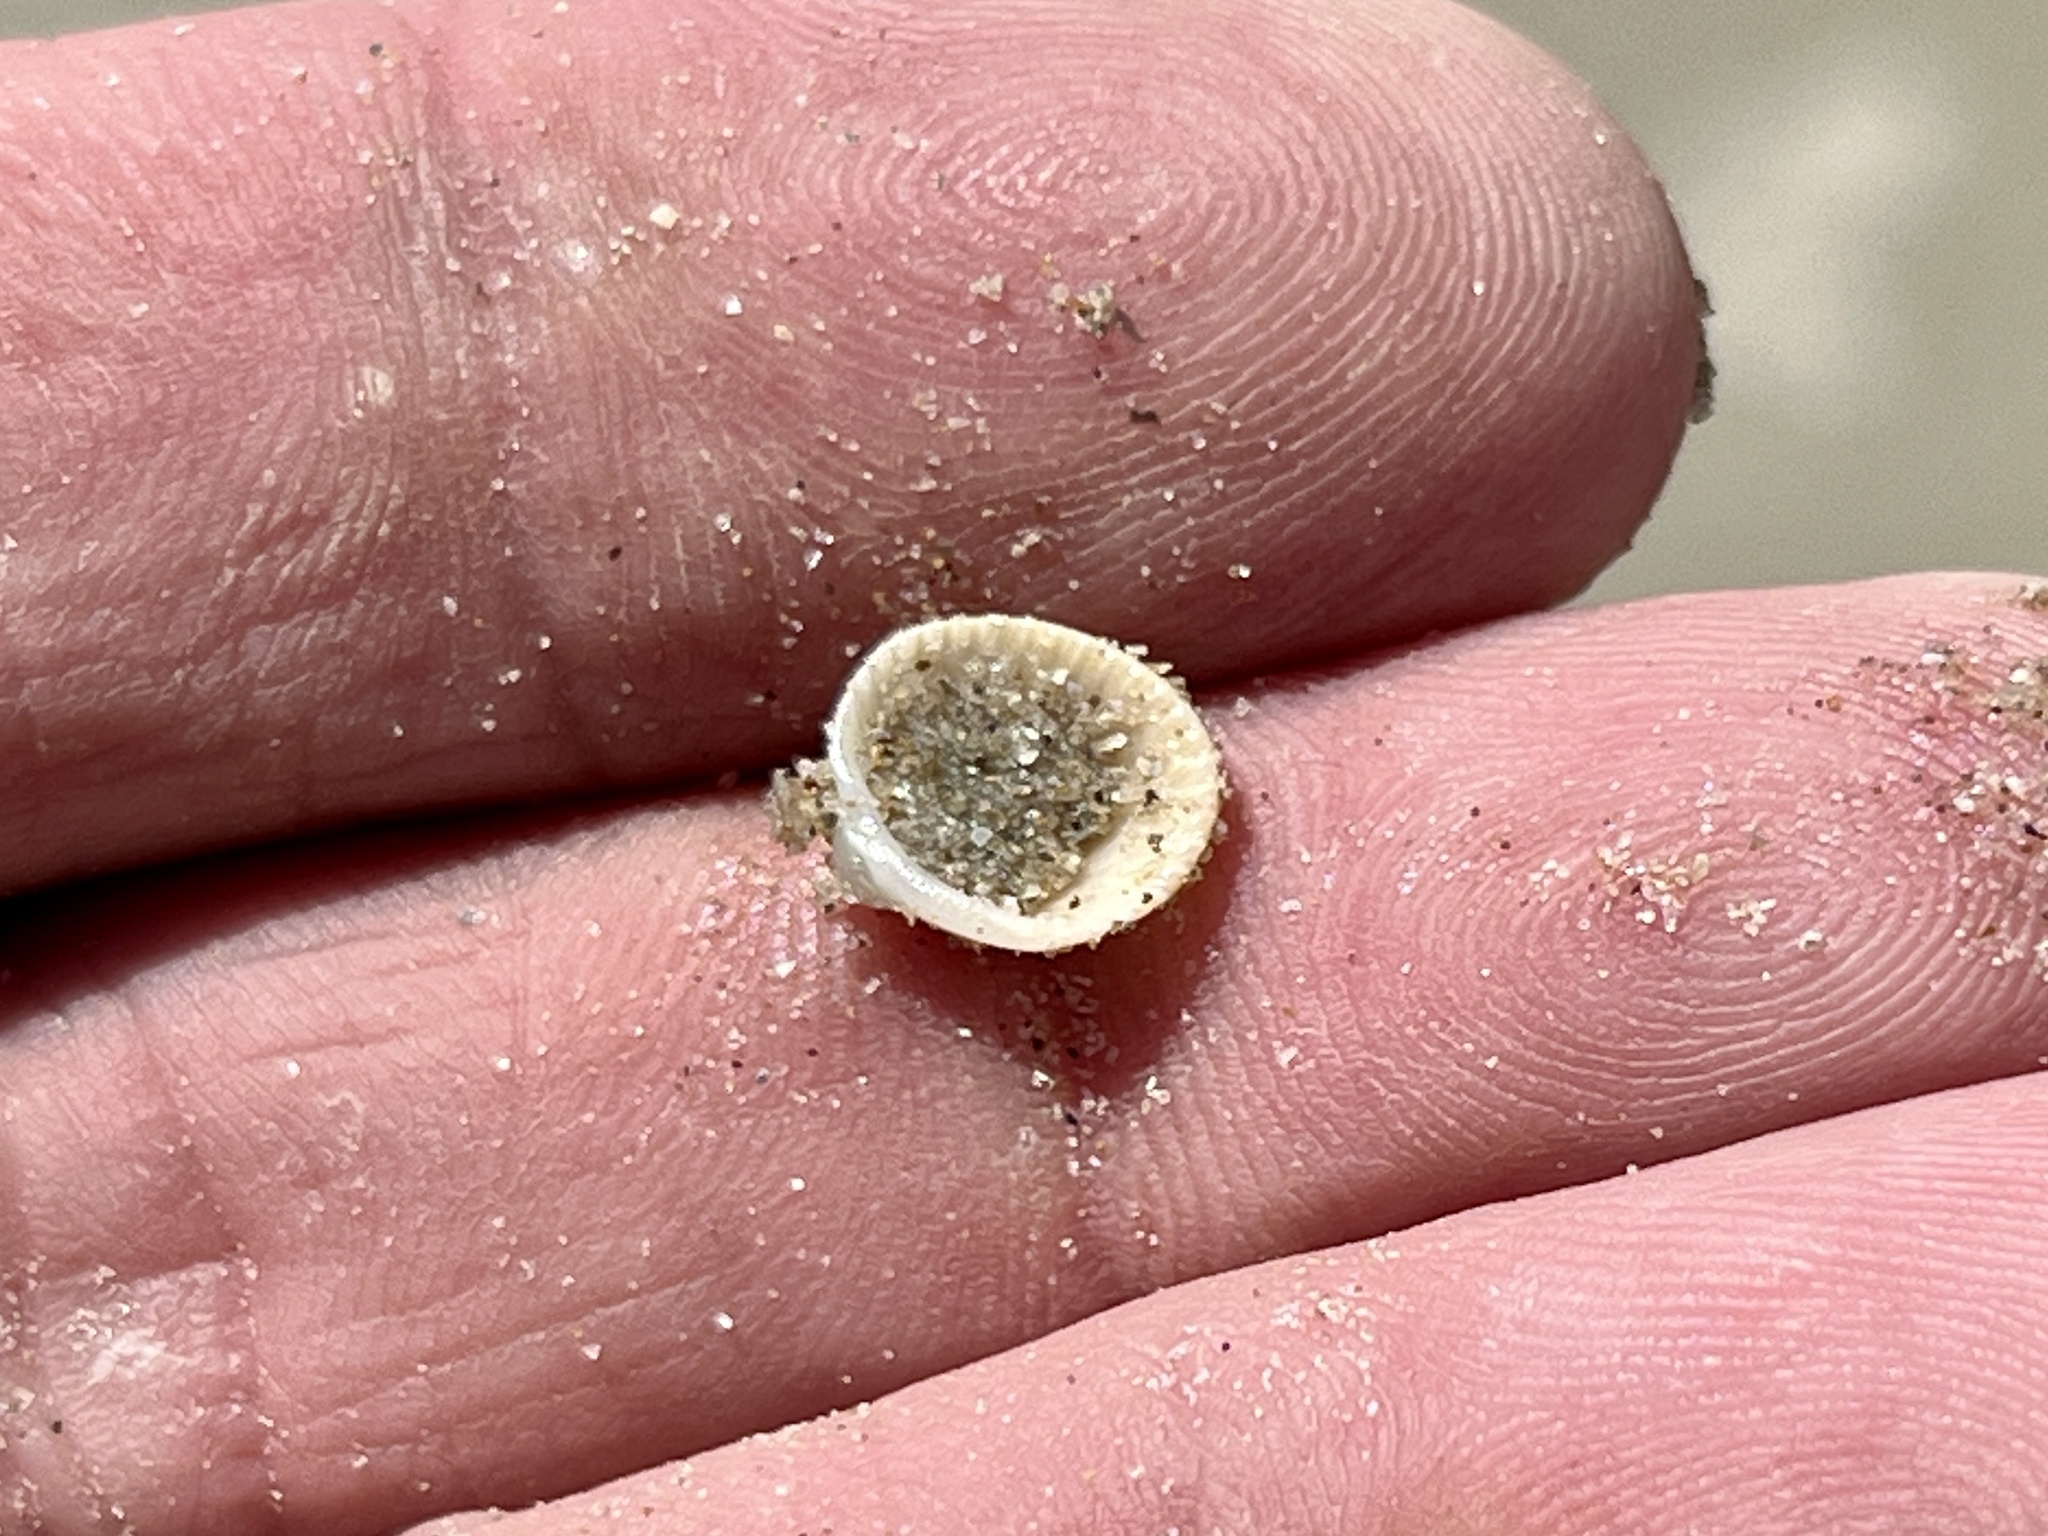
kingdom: Animalia
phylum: Mollusca
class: Bivalvia
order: Arcida
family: Arcidae
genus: Lunarca
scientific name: Lunarca ovalis
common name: Blood ark
